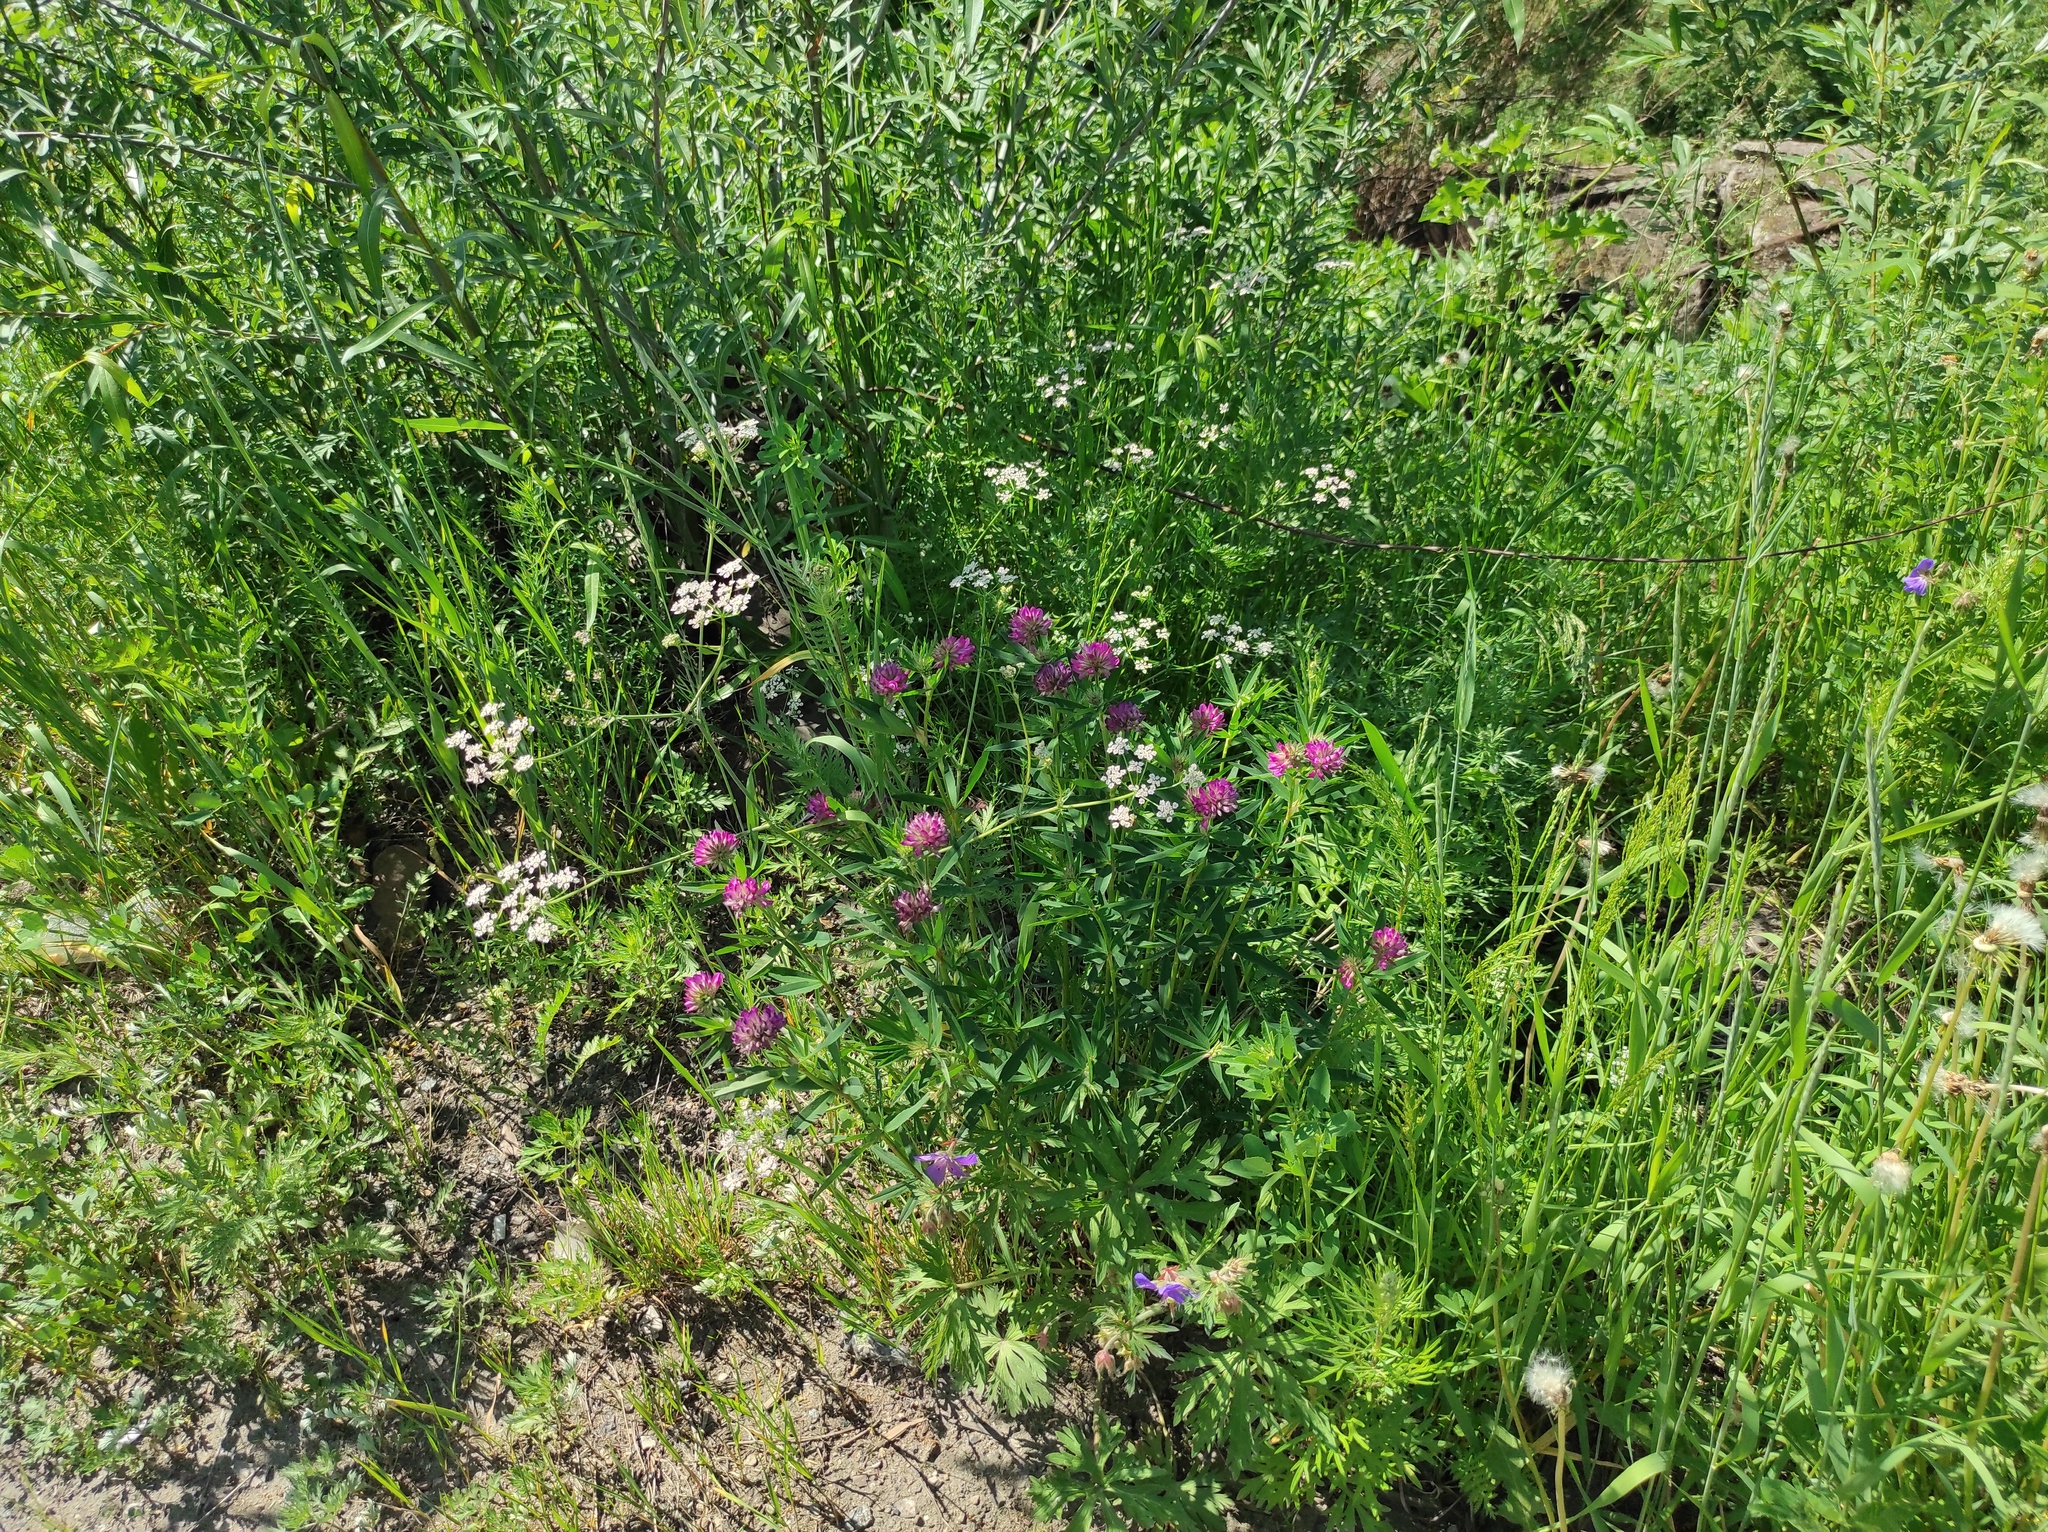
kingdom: Plantae
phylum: Tracheophyta
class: Magnoliopsida
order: Fabales
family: Fabaceae
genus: Trifolium
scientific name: Trifolium lupinaster
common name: Lupine clover
